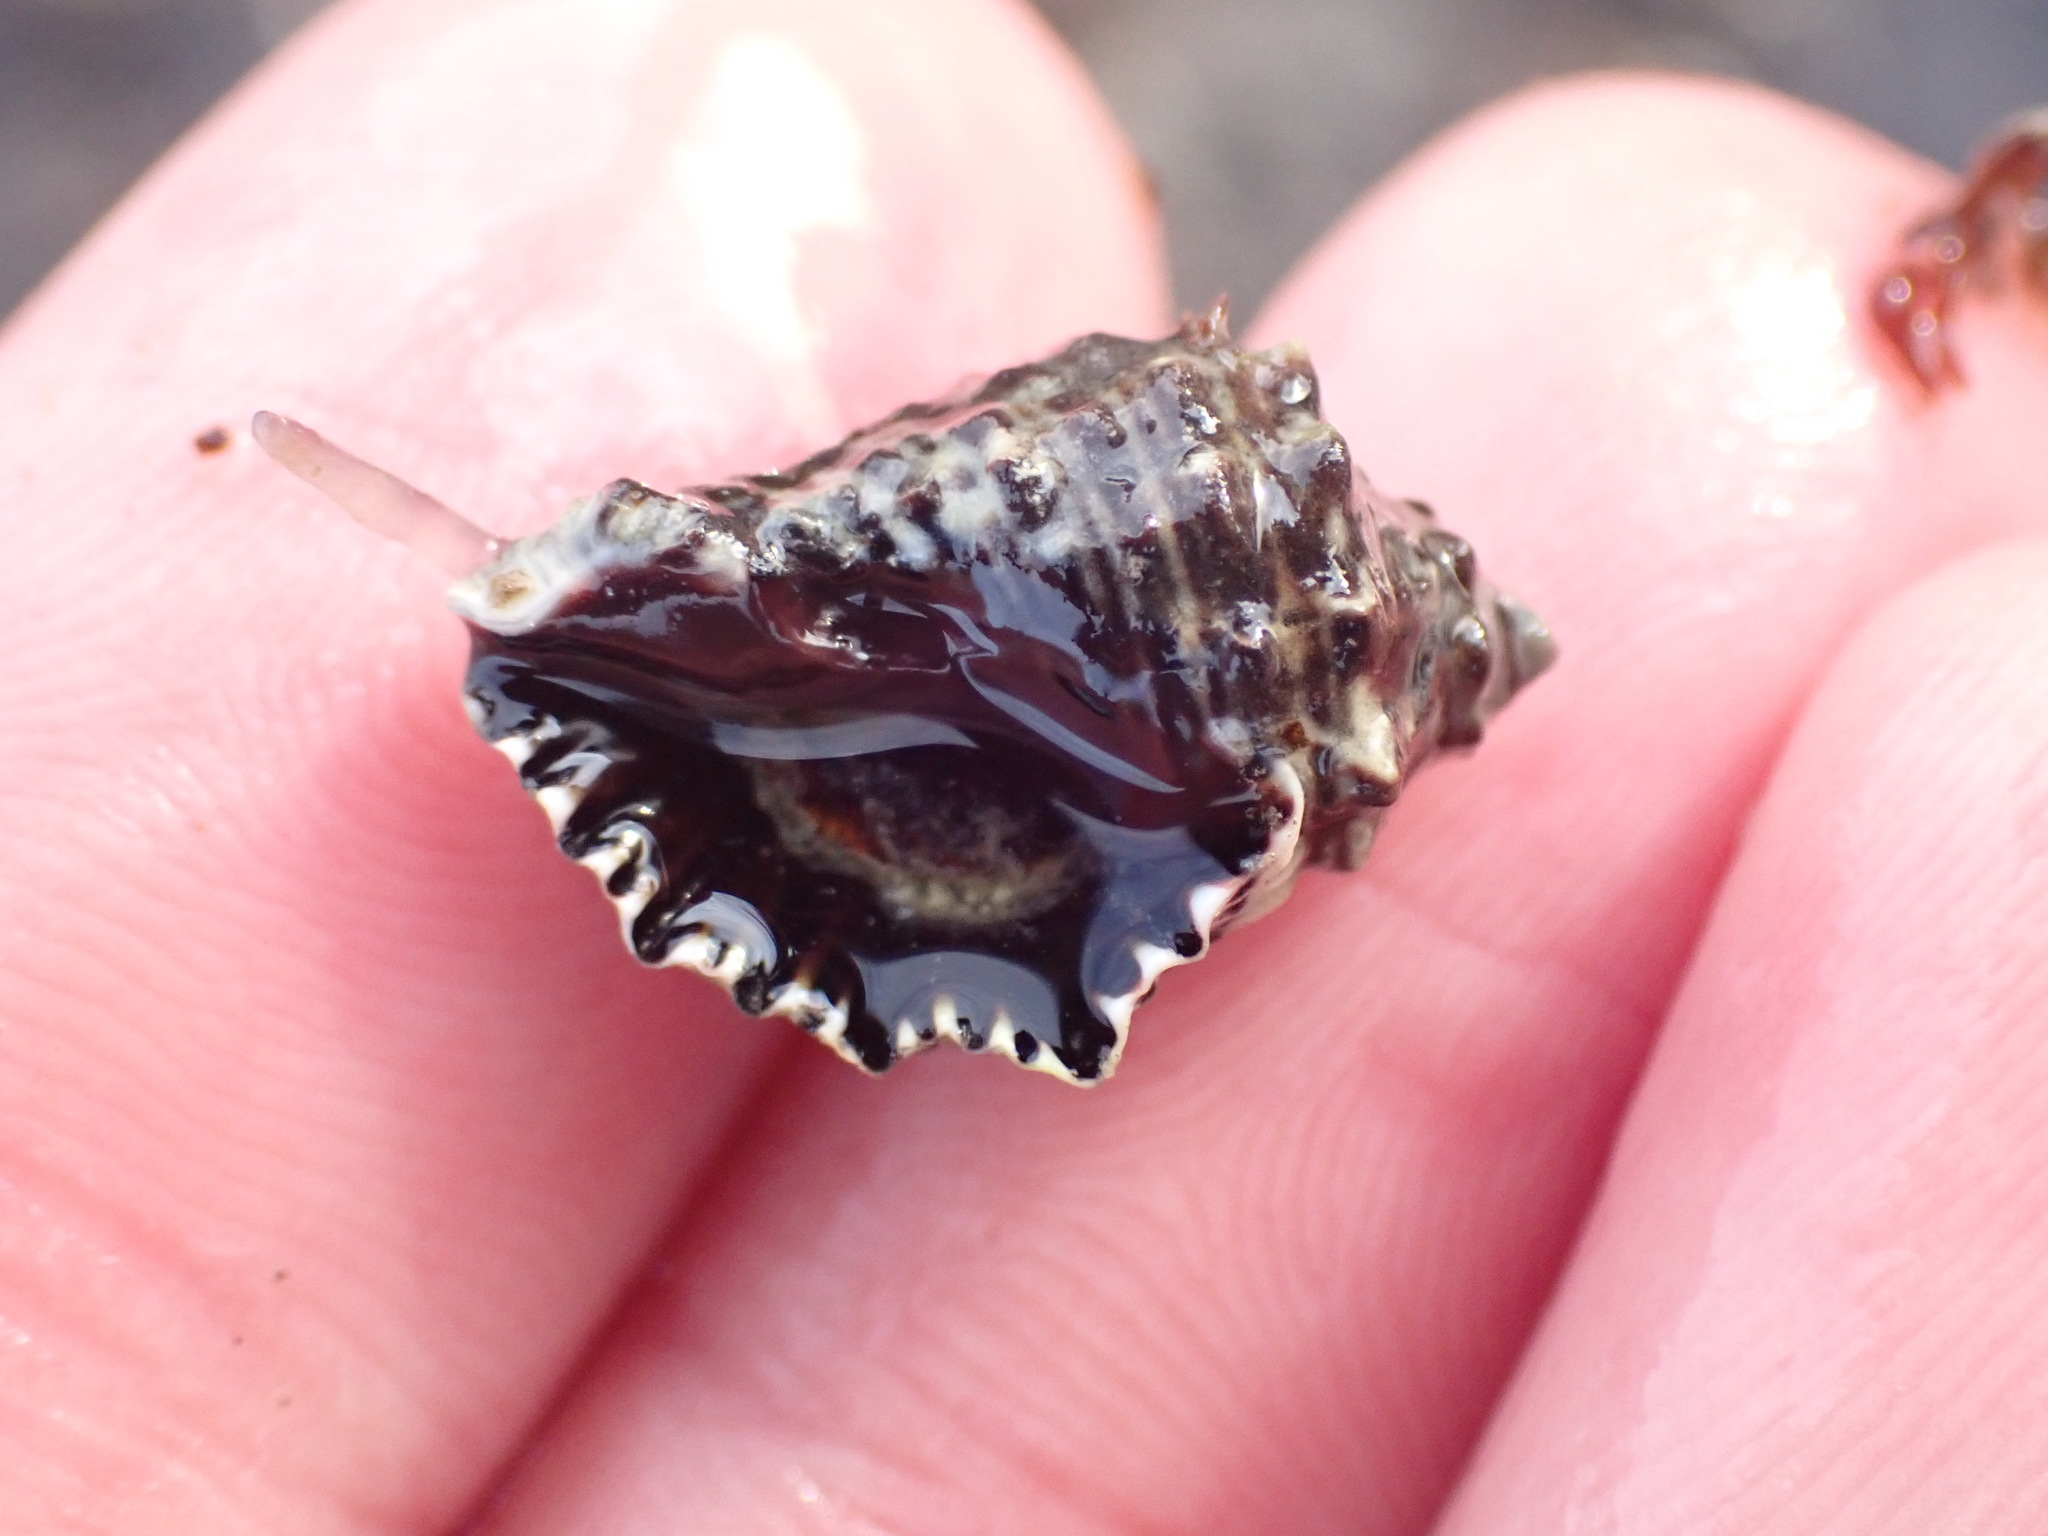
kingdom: Animalia
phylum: Mollusca
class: Gastropoda
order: Neogastropoda
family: Muricidae
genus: Haustrum
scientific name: Haustrum scobina
